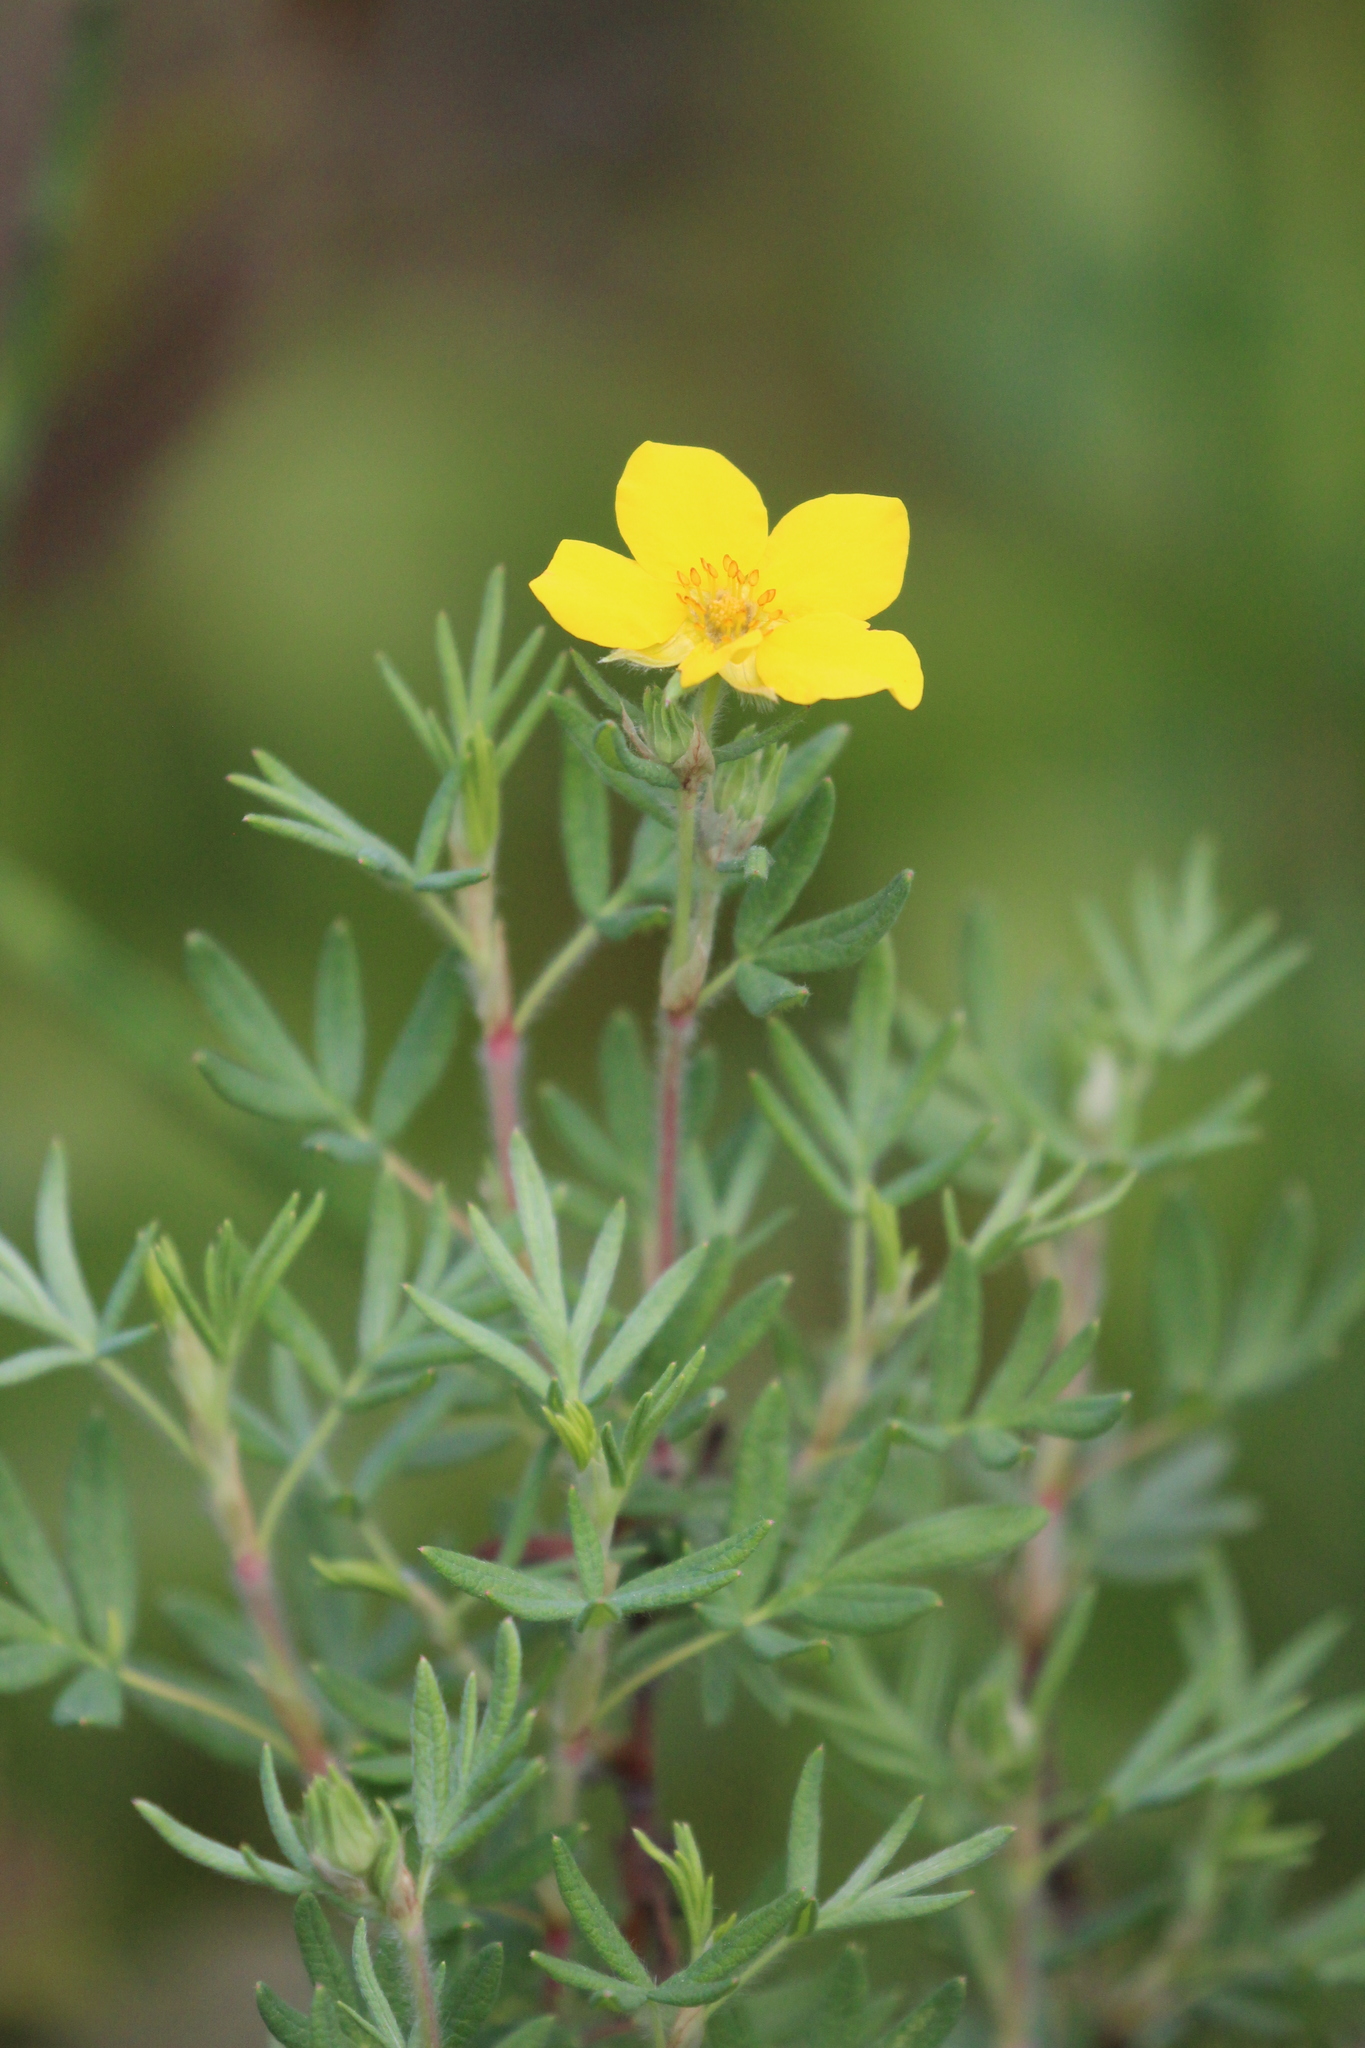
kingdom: Plantae
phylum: Tracheophyta
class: Magnoliopsida
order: Rosales
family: Rosaceae
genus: Dasiphora
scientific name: Dasiphora fruticosa
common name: Shrubby cinquefoil
